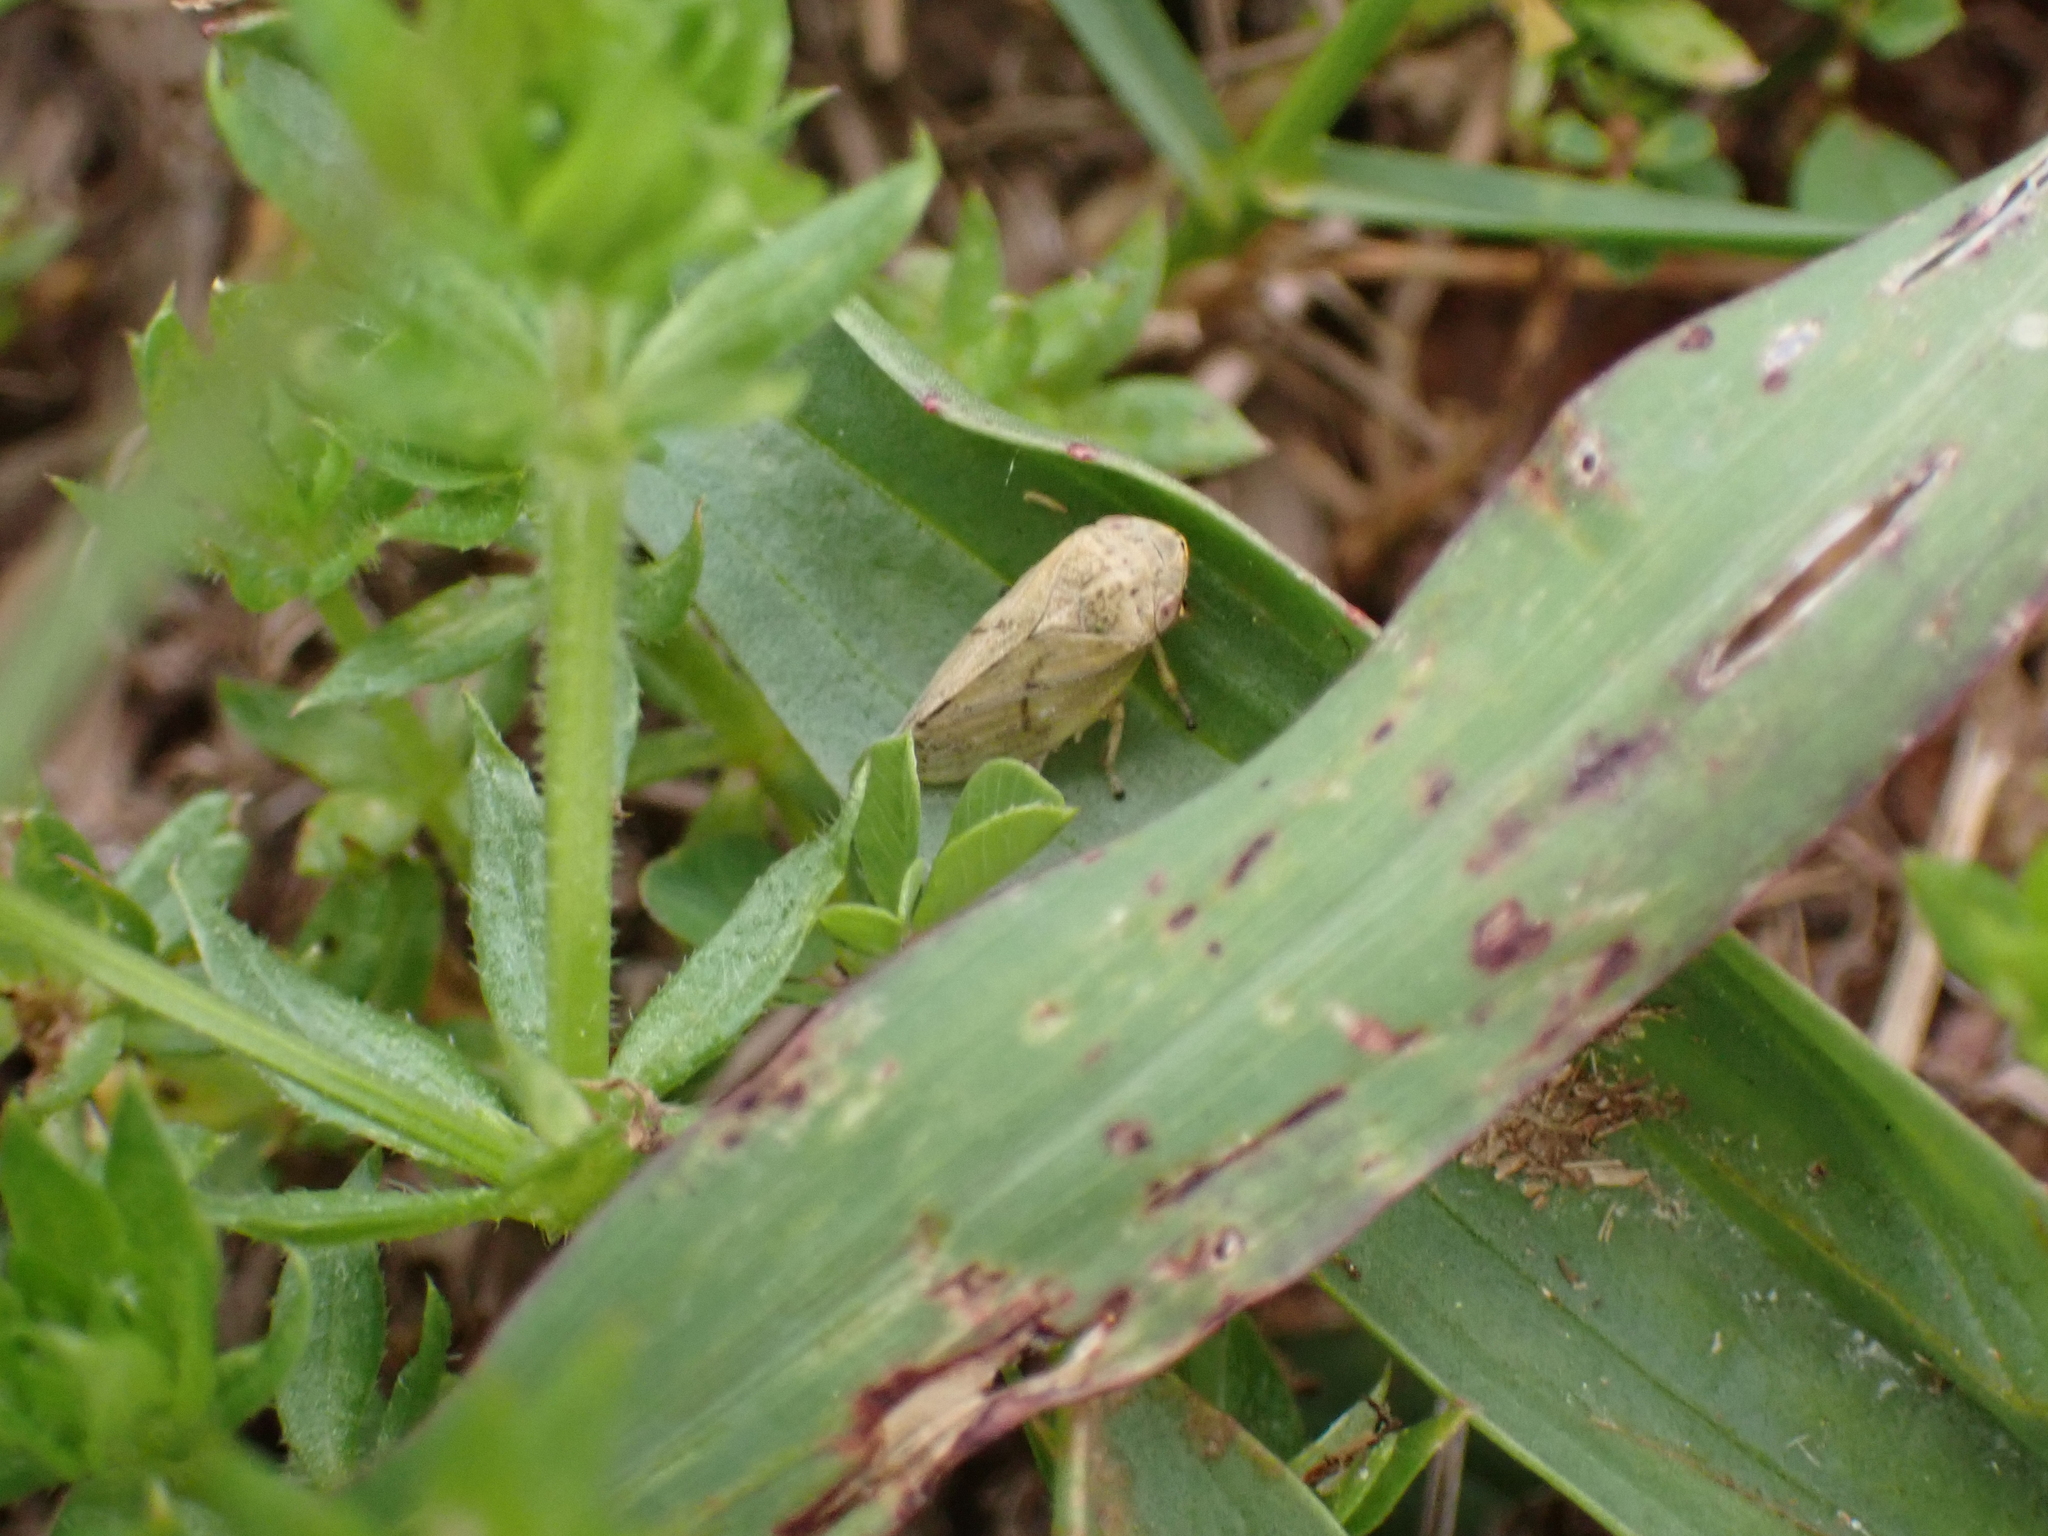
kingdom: Animalia
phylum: Arthropoda
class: Insecta
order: Hemiptera
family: Aphrophoridae
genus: Philaenus
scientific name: Philaenus spumarius
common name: Meadow spittlebug
